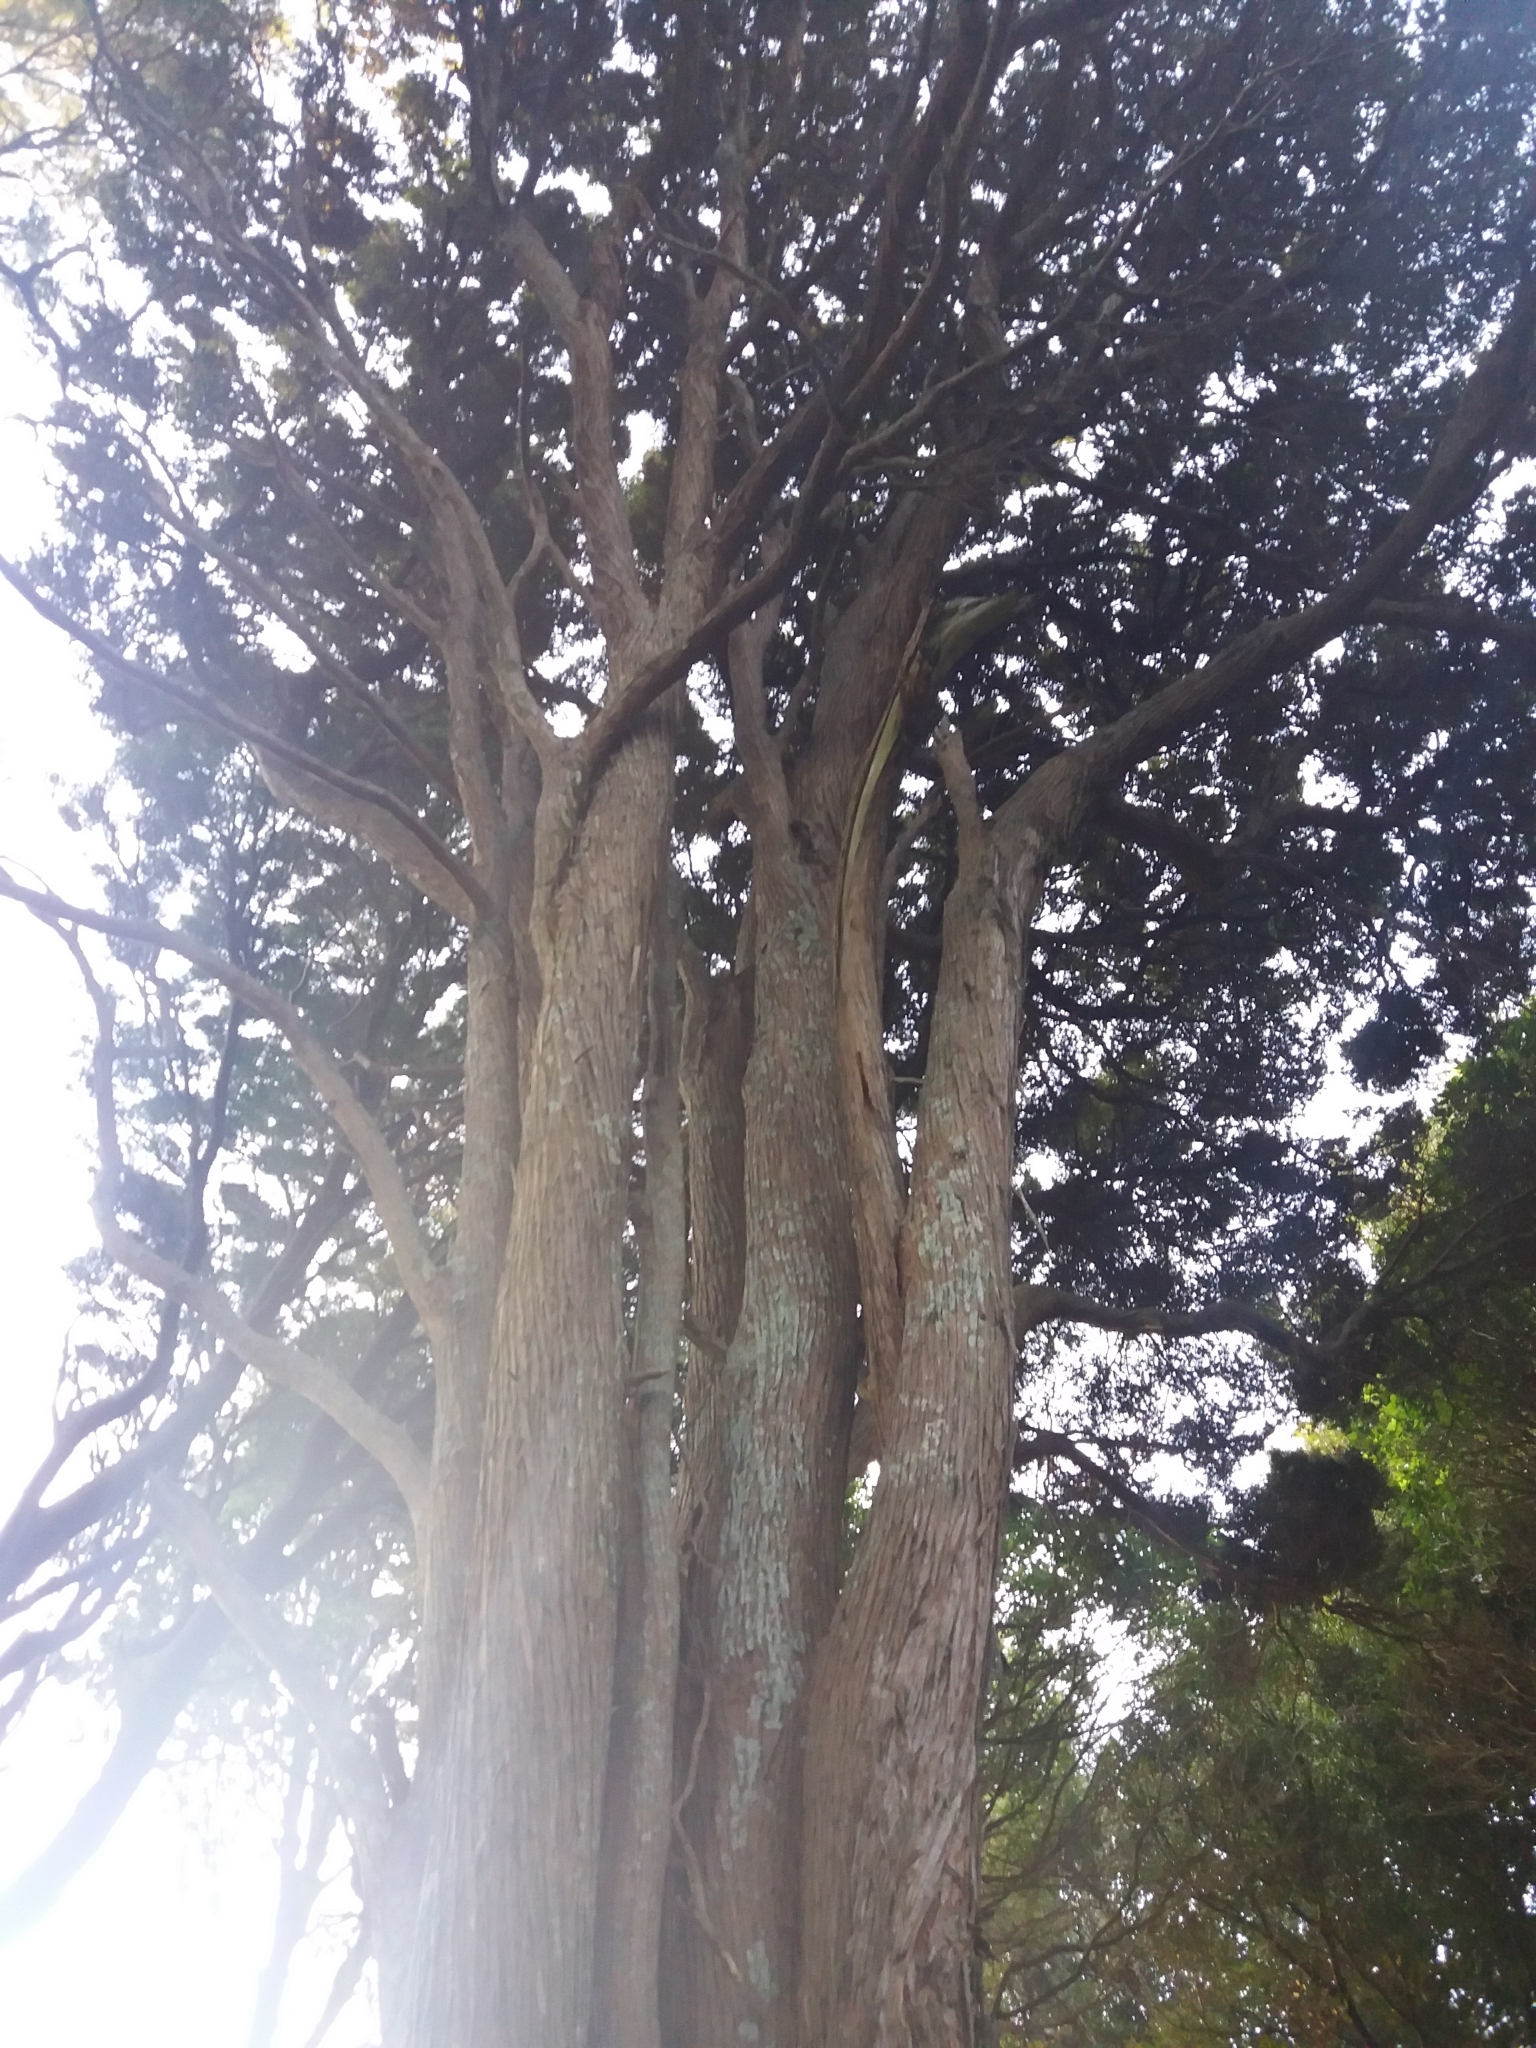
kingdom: Plantae
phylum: Tracheophyta
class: Pinopsida
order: Pinales
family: Podocarpaceae
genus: Podocarpus
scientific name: Podocarpus totara
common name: Totara
